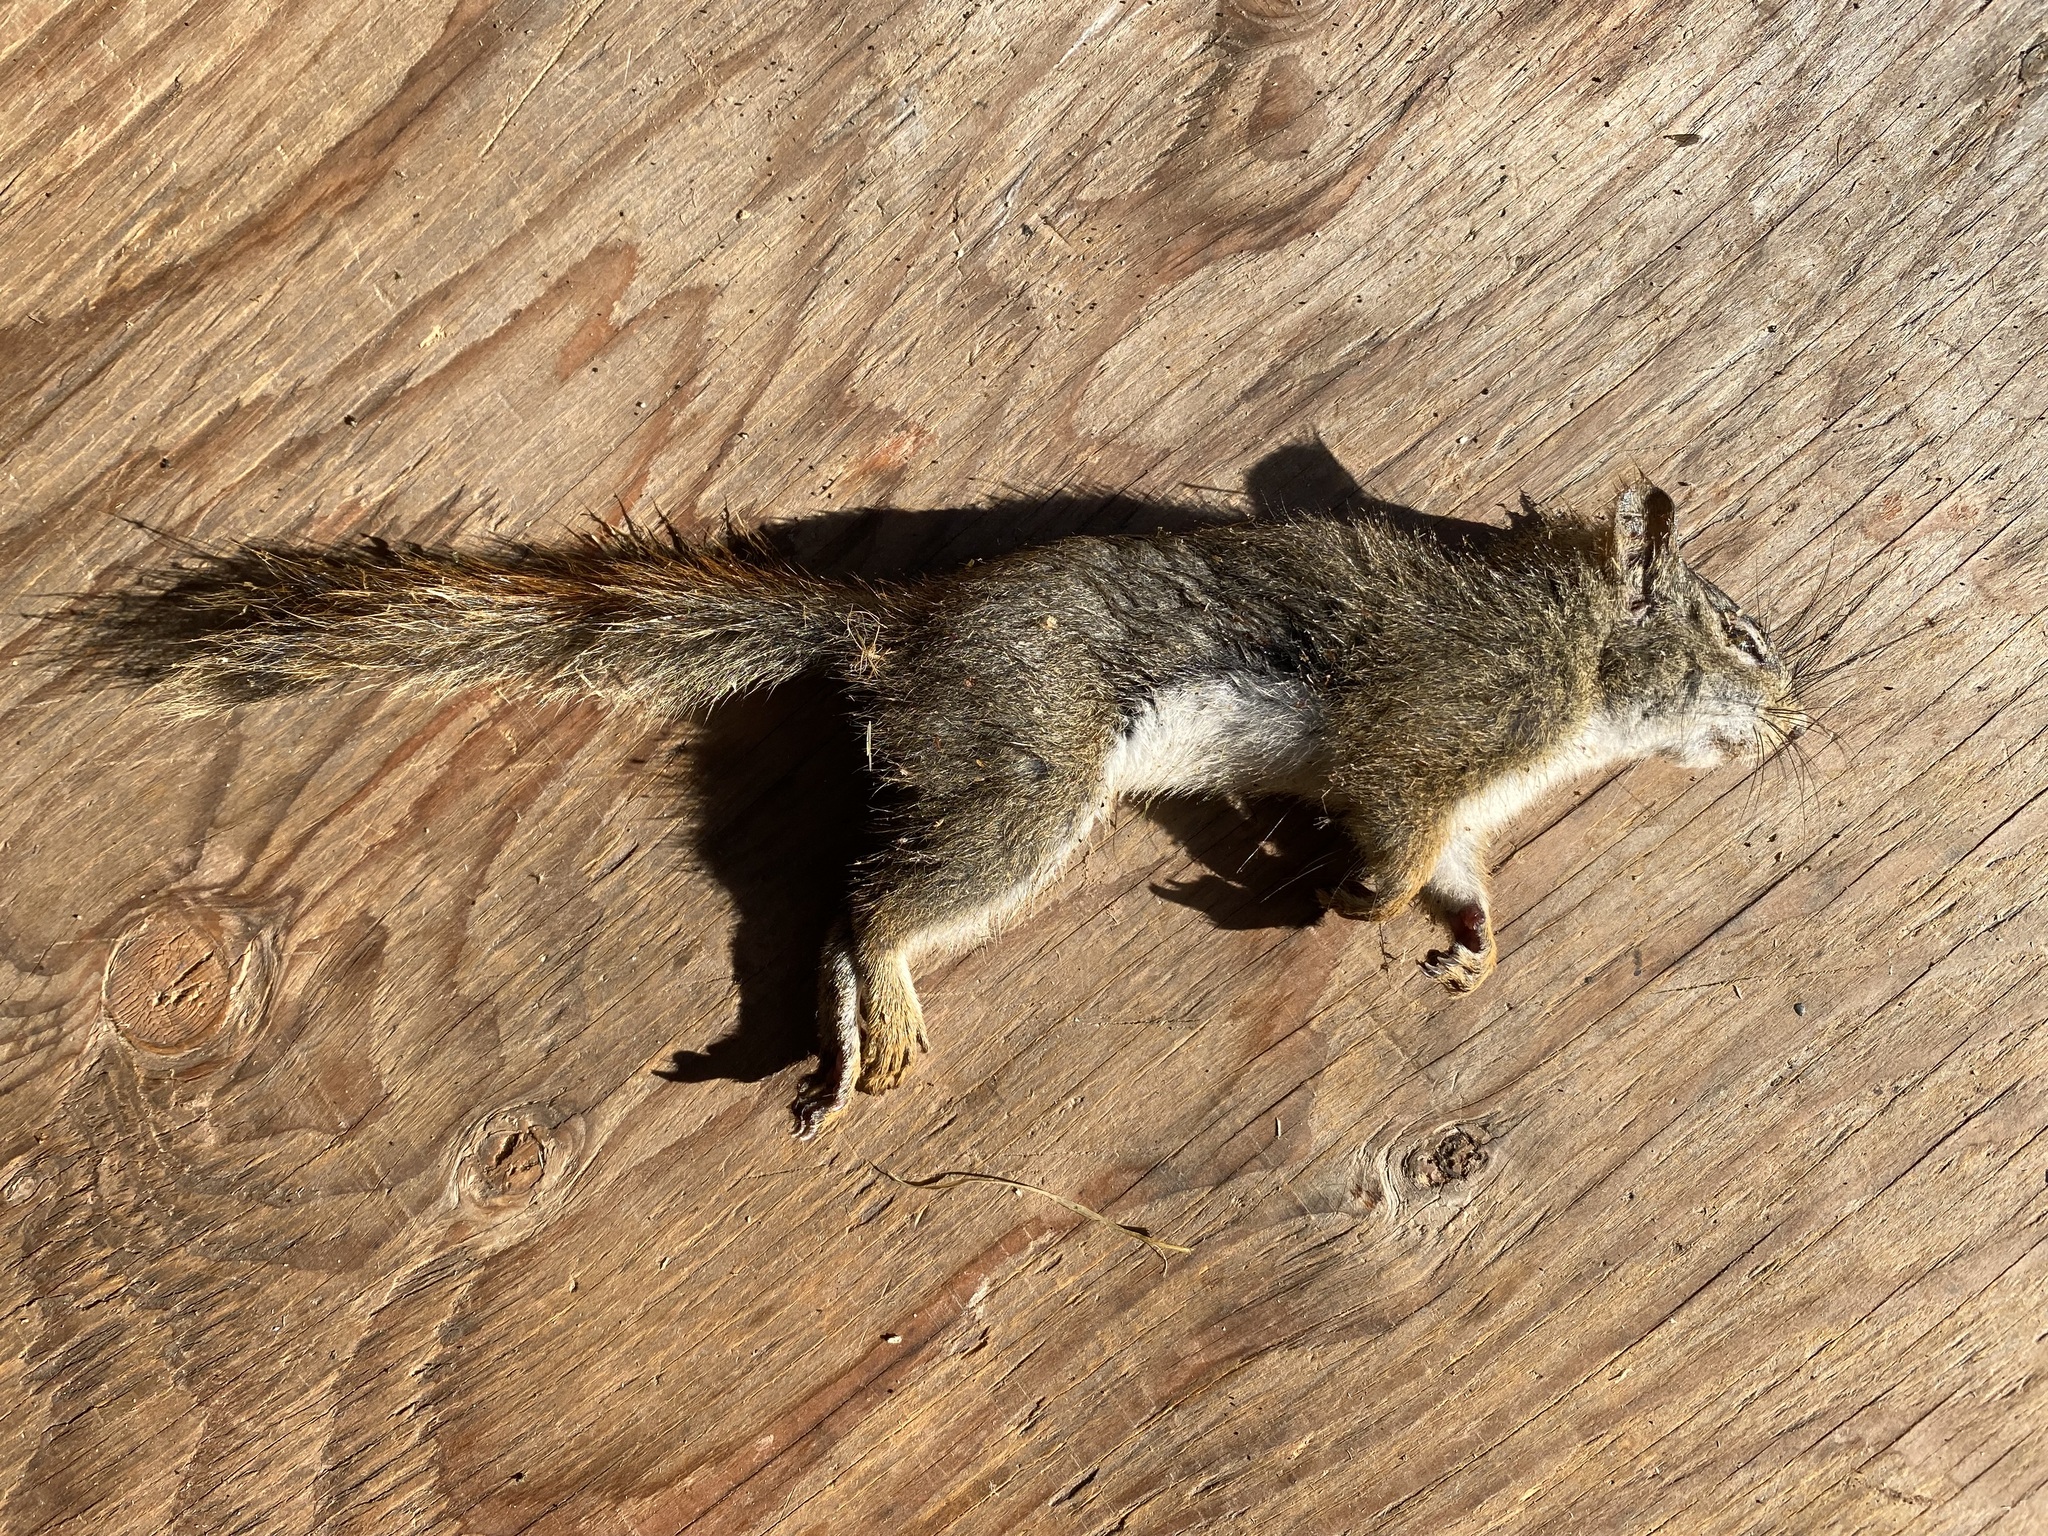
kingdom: Animalia
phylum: Chordata
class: Mammalia
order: Rodentia
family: Sciuridae
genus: Tamiasciurus
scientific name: Tamiasciurus hudsonicus
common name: Red squirrel
